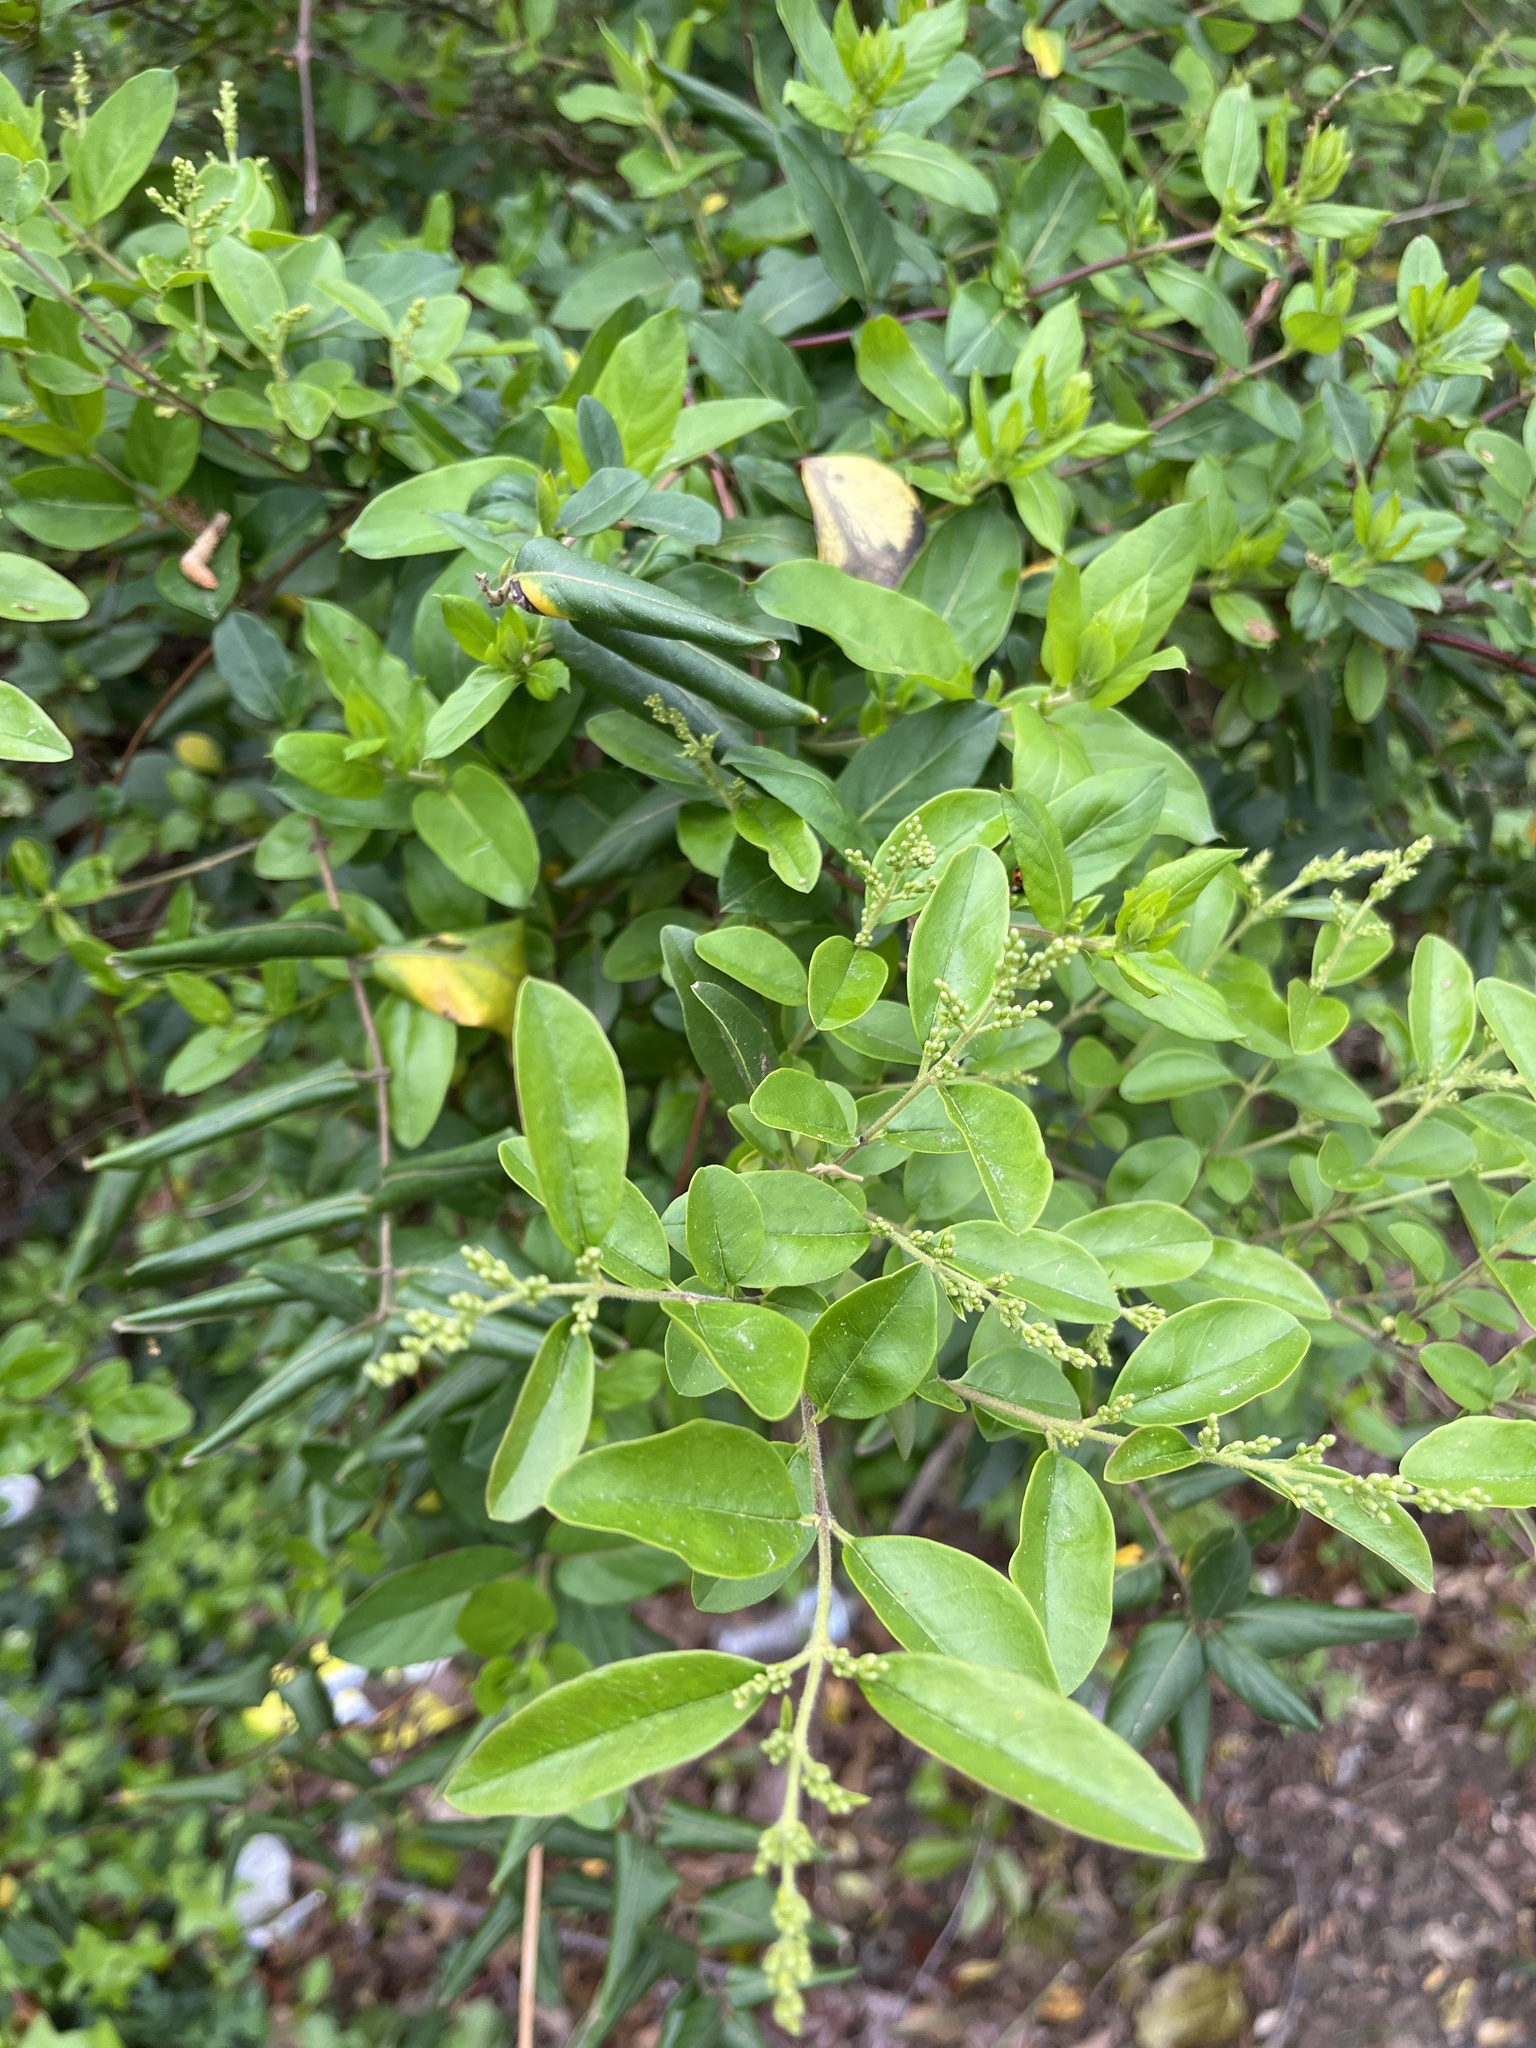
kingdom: Plantae
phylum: Tracheophyta
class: Magnoliopsida
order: Lamiales
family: Oleaceae
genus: Ligustrum
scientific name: Ligustrum sinense
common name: Chinese privet
